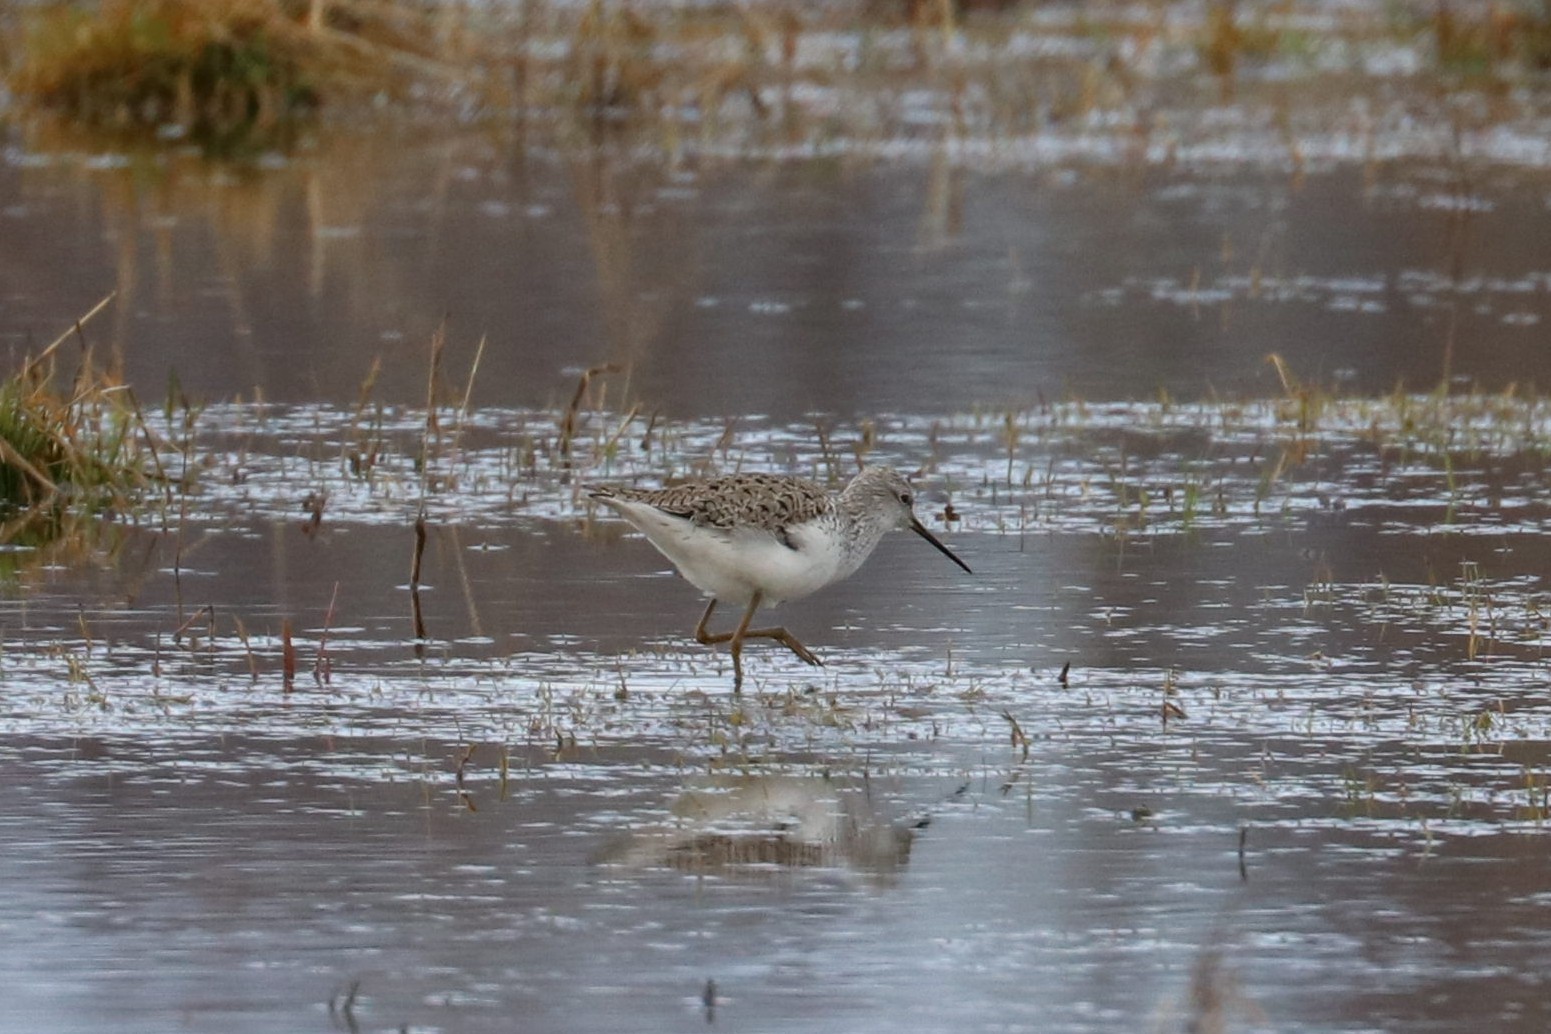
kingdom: Animalia
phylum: Chordata
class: Aves
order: Charadriiformes
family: Scolopacidae
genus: Tringa
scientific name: Tringa stagnatilis
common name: Marsh sandpiper
